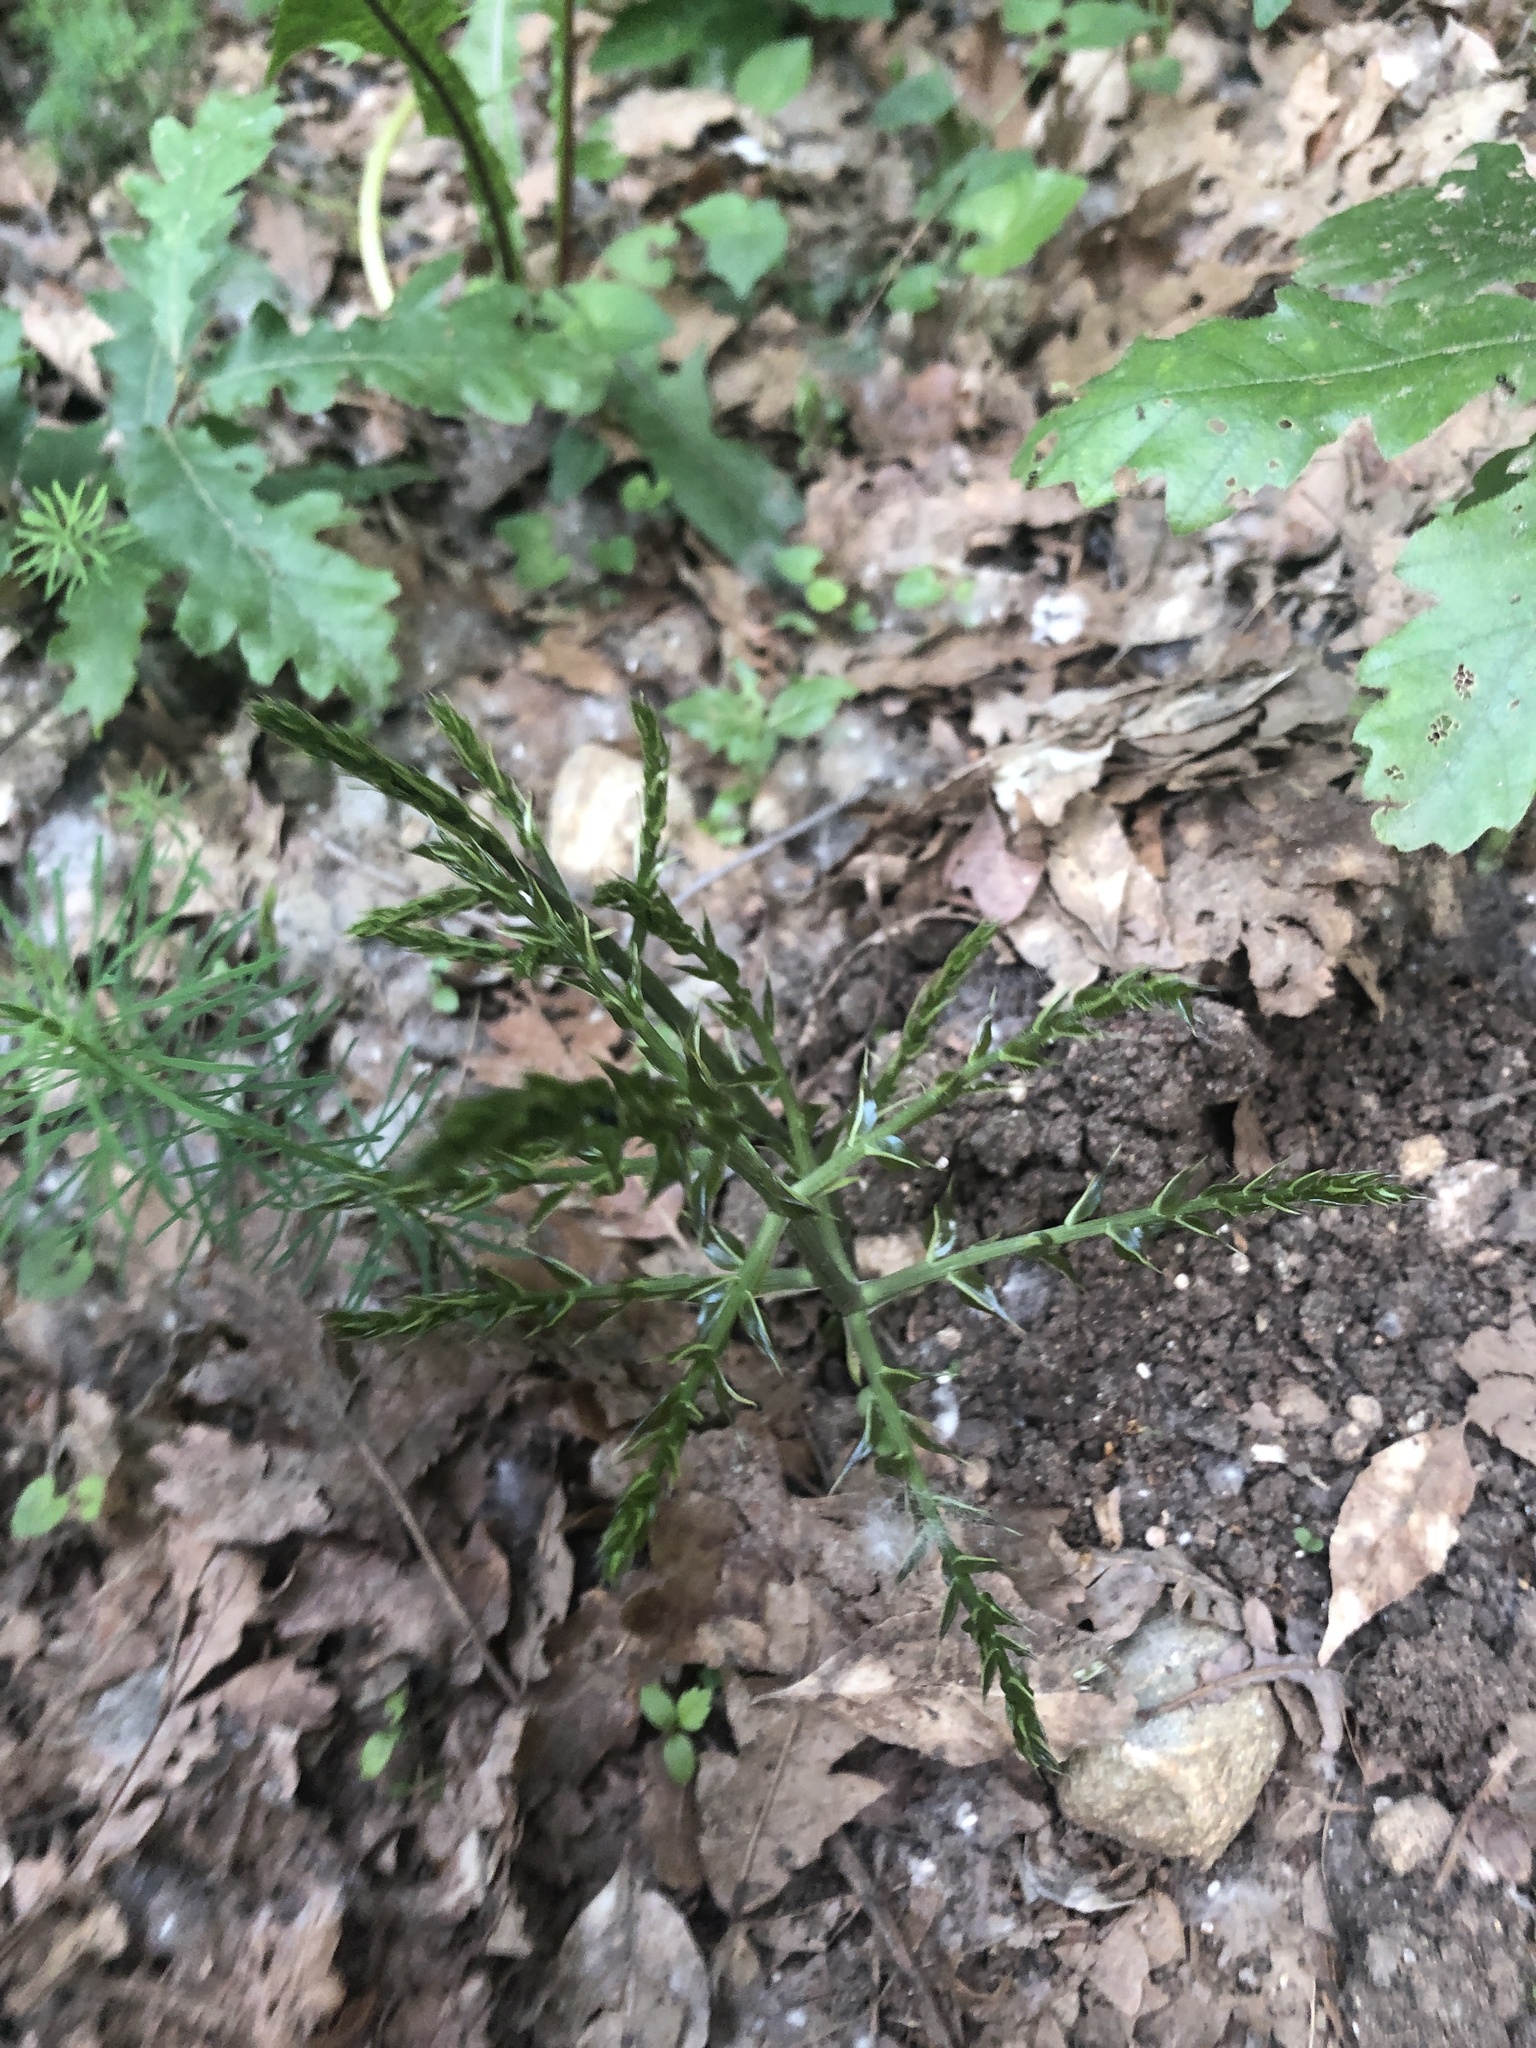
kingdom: Plantae
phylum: Tracheophyta
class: Liliopsida
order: Asparagales
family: Asparagaceae
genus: Ruscus
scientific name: Ruscus aculeatus
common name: Butcher's-broom
